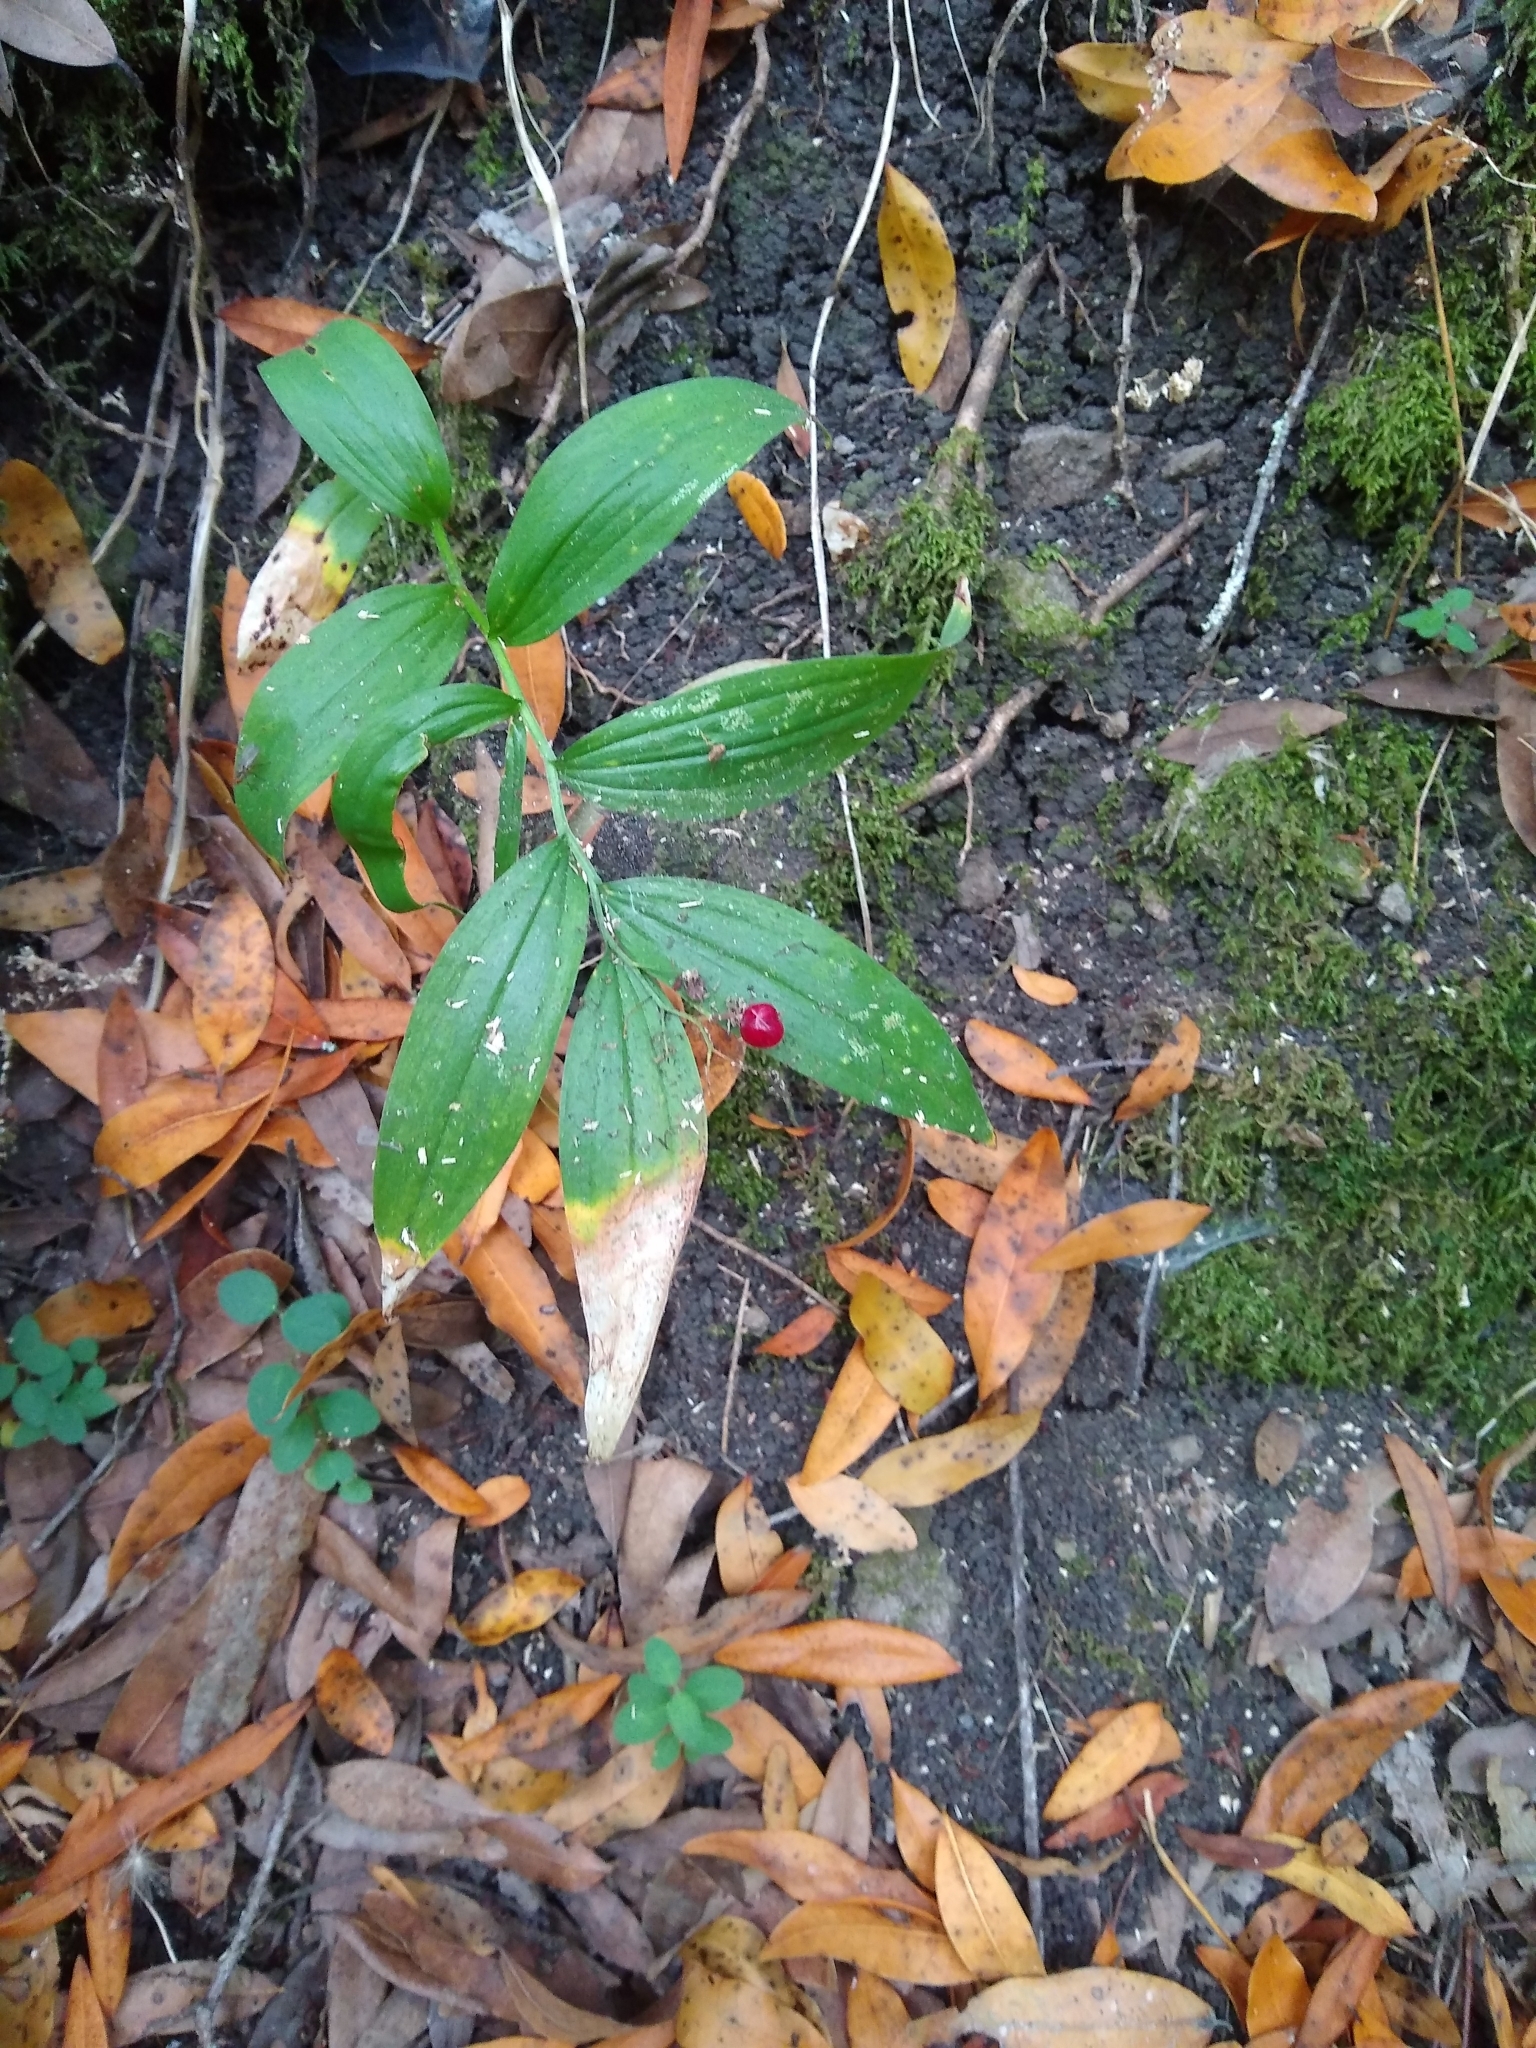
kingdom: Plantae
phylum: Tracheophyta
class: Liliopsida
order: Asparagales
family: Asparagaceae
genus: Maianthemum
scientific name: Maianthemum stellatum
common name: Little false solomon's seal
